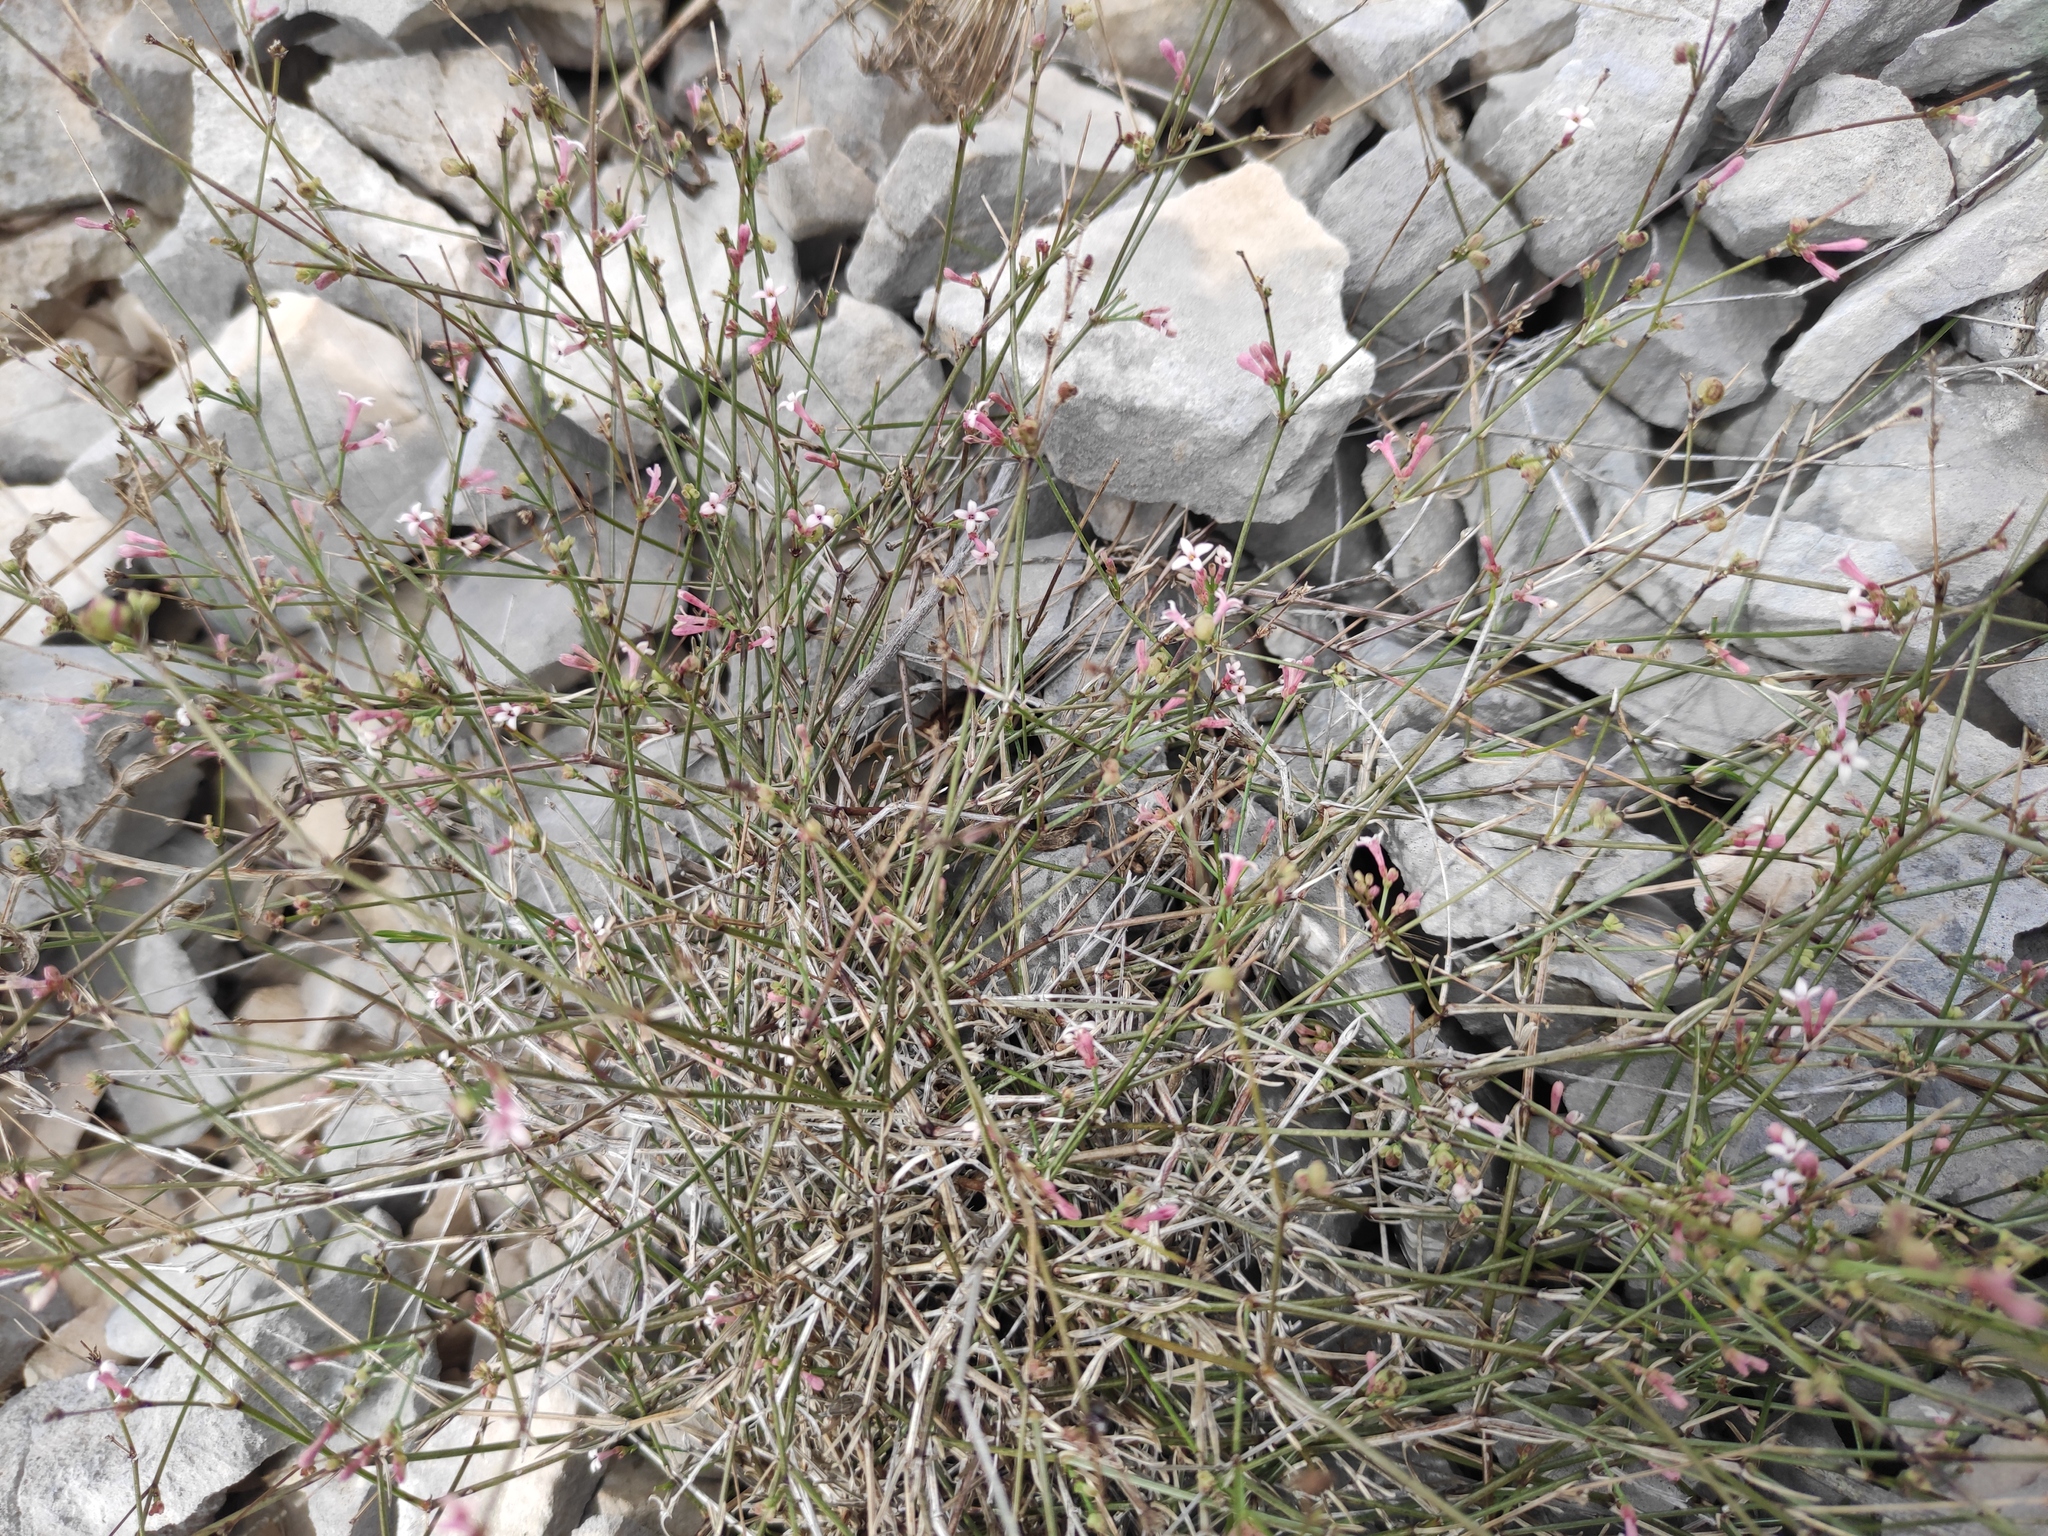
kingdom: Plantae
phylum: Tracheophyta
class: Magnoliopsida
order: Gentianales
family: Rubiaceae
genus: Cynanchica
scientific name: Cynanchica pyrenaica
